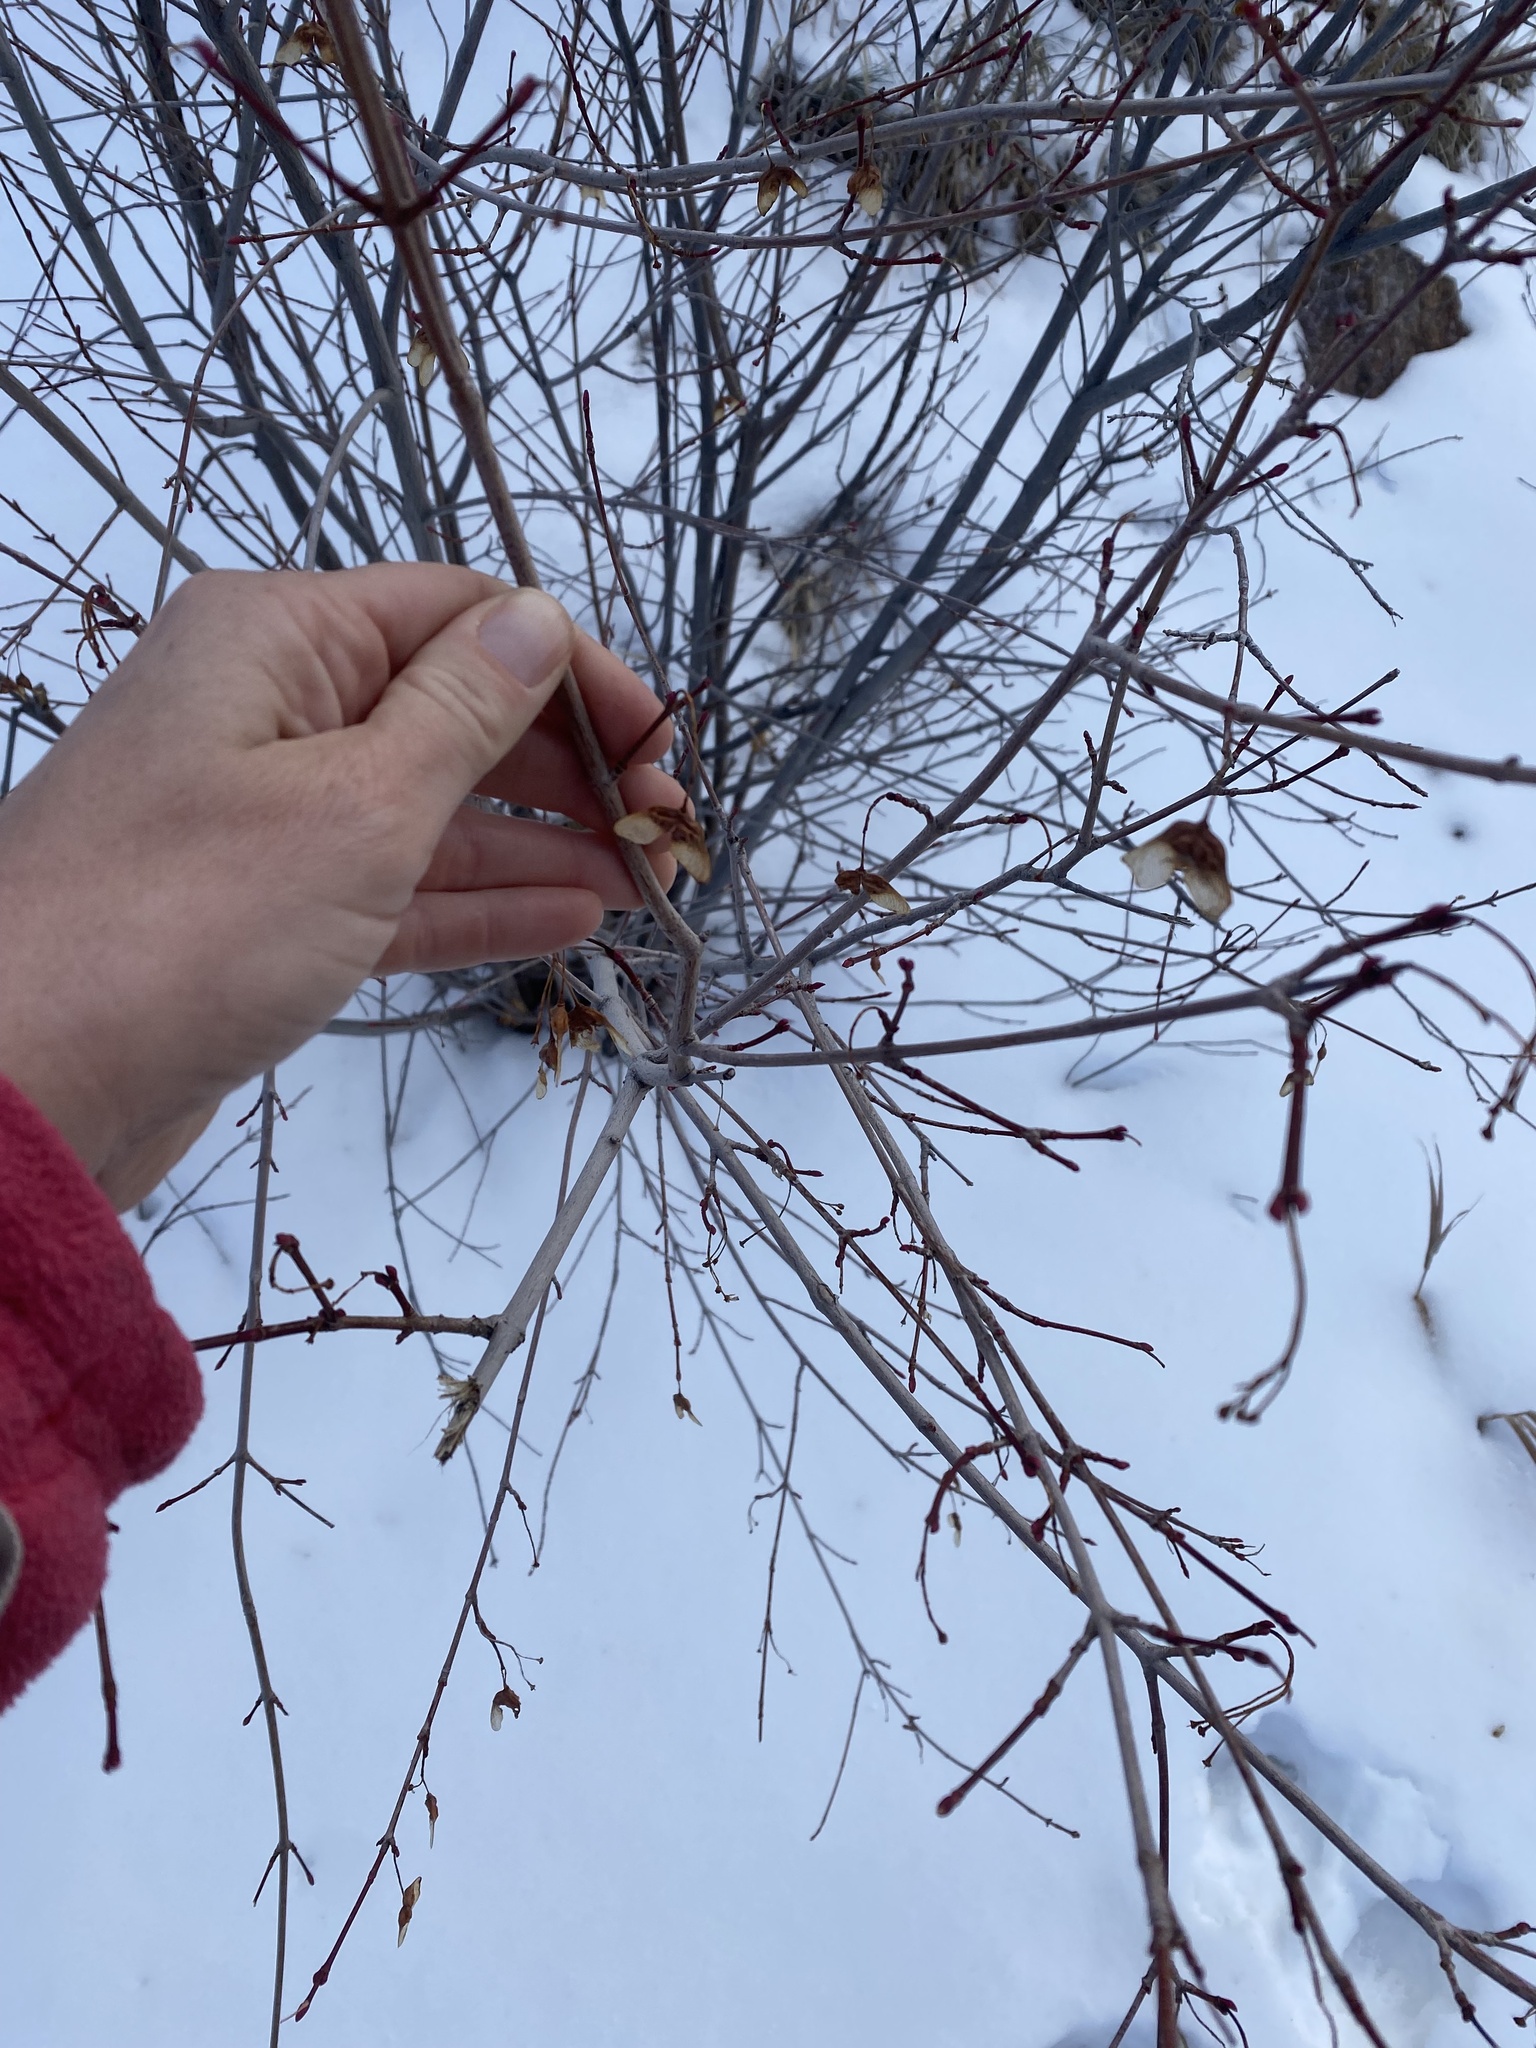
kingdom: Plantae
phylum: Tracheophyta
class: Magnoliopsida
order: Sapindales
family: Sapindaceae
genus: Acer
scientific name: Acer glabrum
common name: Rocky mountain maple
